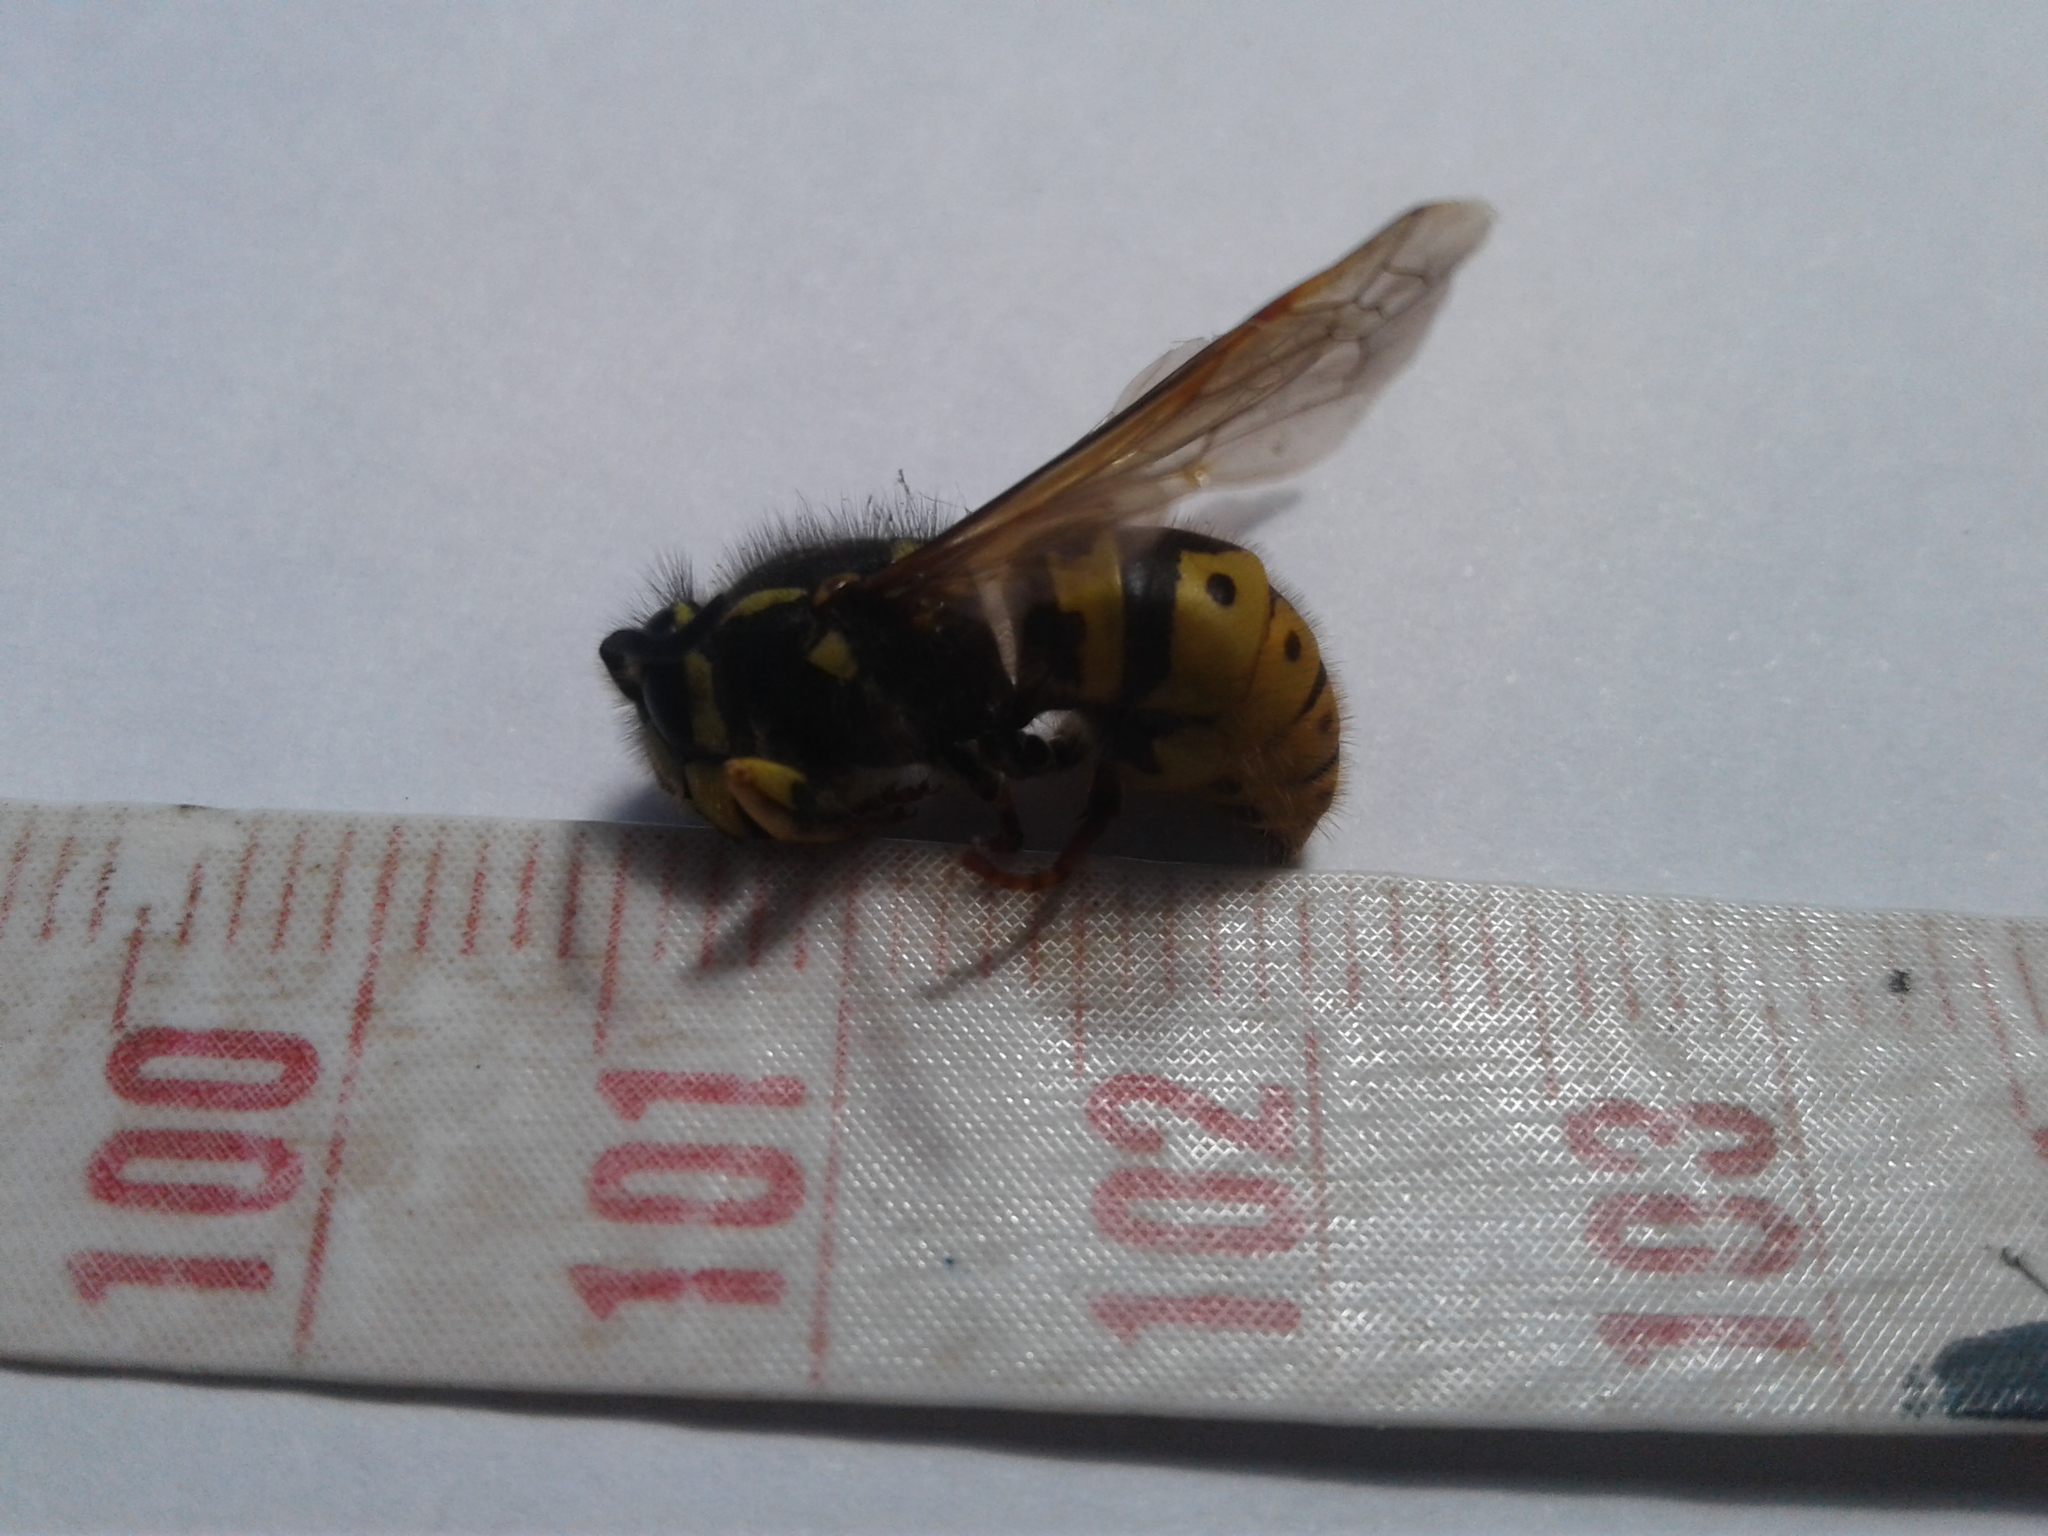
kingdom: Animalia
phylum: Arthropoda
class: Insecta
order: Hymenoptera
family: Vespidae
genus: Vespula
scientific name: Vespula
